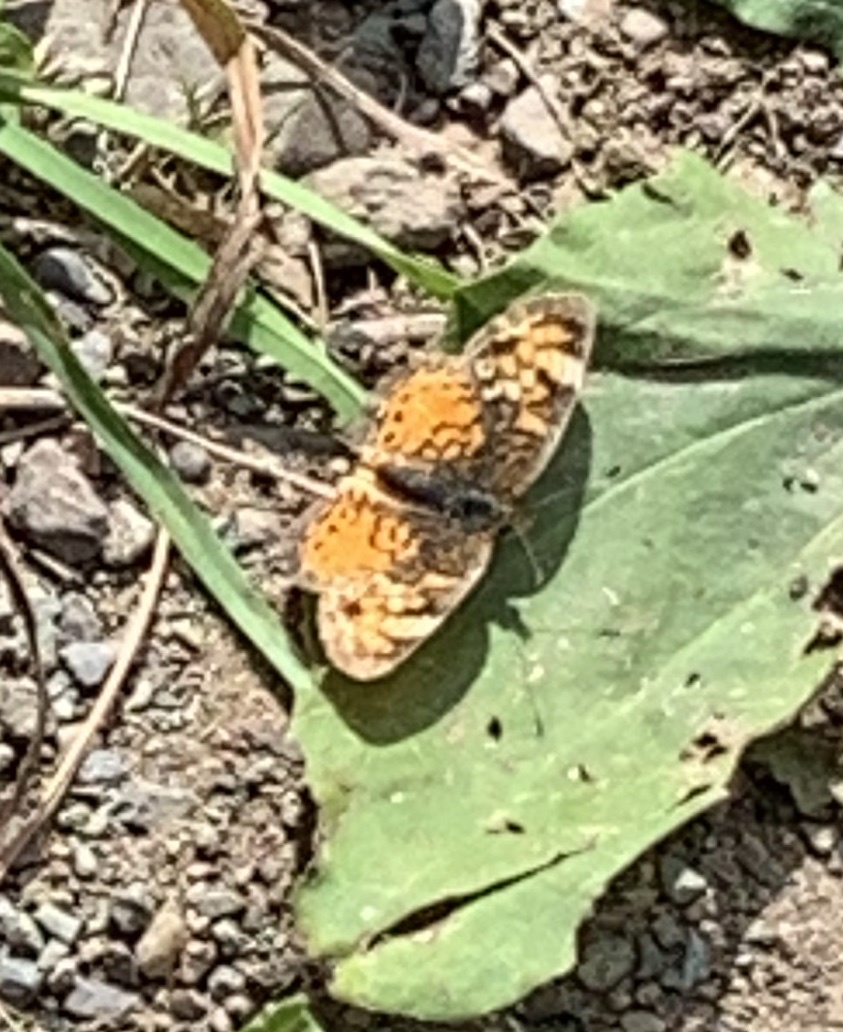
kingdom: Animalia
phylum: Arthropoda
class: Insecta
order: Lepidoptera
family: Nymphalidae
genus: Phyciodes
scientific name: Phyciodes tharos
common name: Pearl crescent
